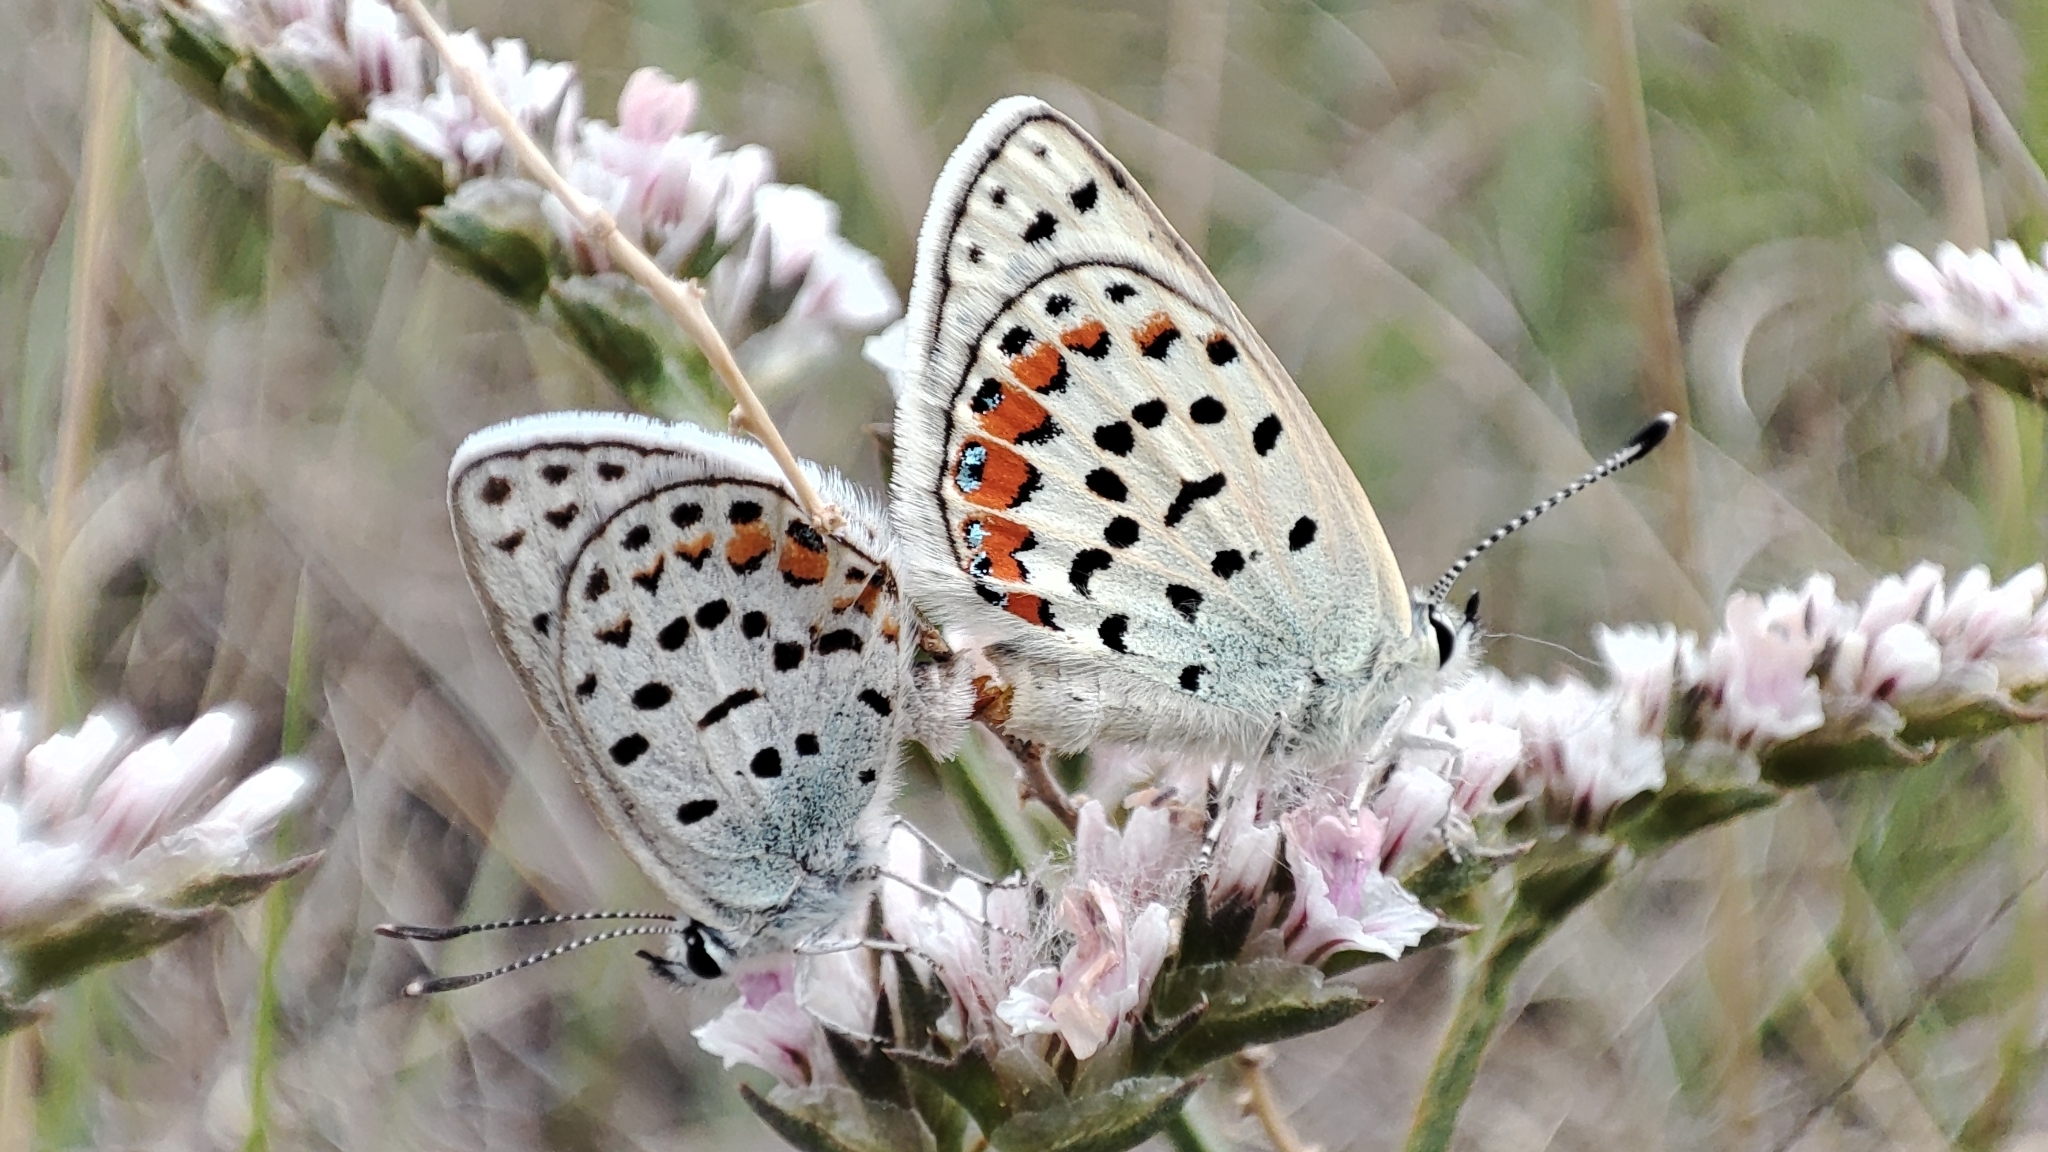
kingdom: Animalia
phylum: Arthropoda
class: Insecta
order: Lepidoptera
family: Lycaenidae
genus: Glabroculus
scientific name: Glabroculus cyane
